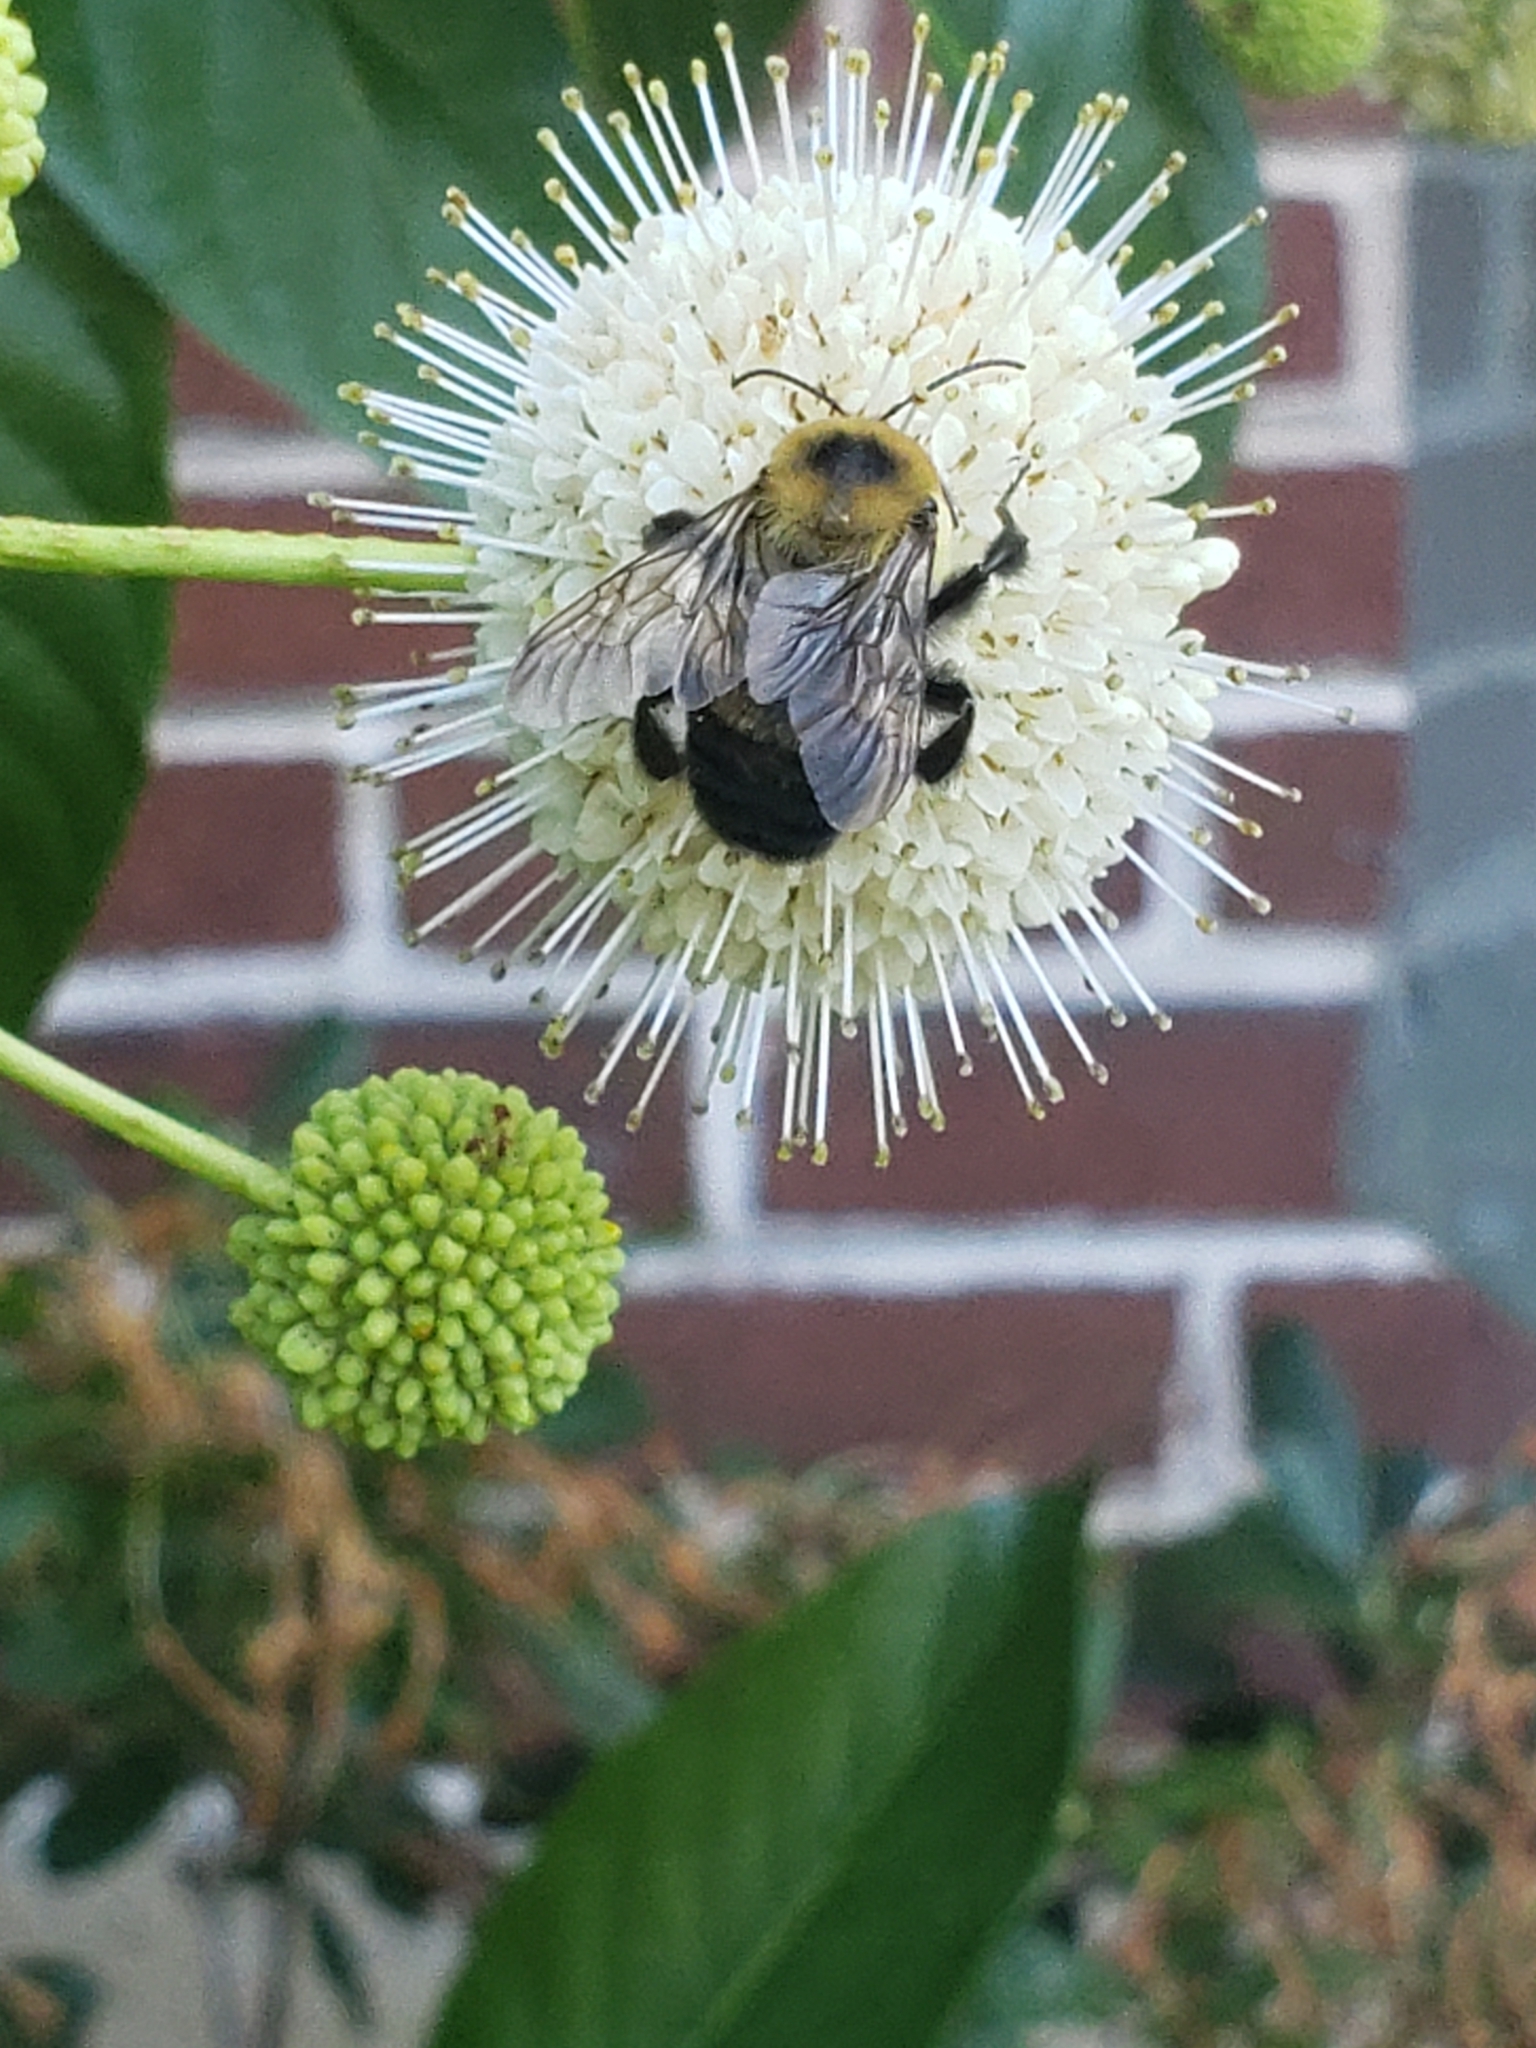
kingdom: Animalia
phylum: Arthropoda
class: Insecta
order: Hymenoptera
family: Apidae
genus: Bombus
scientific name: Bombus griseocollis
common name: Brown-belted bumble bee
